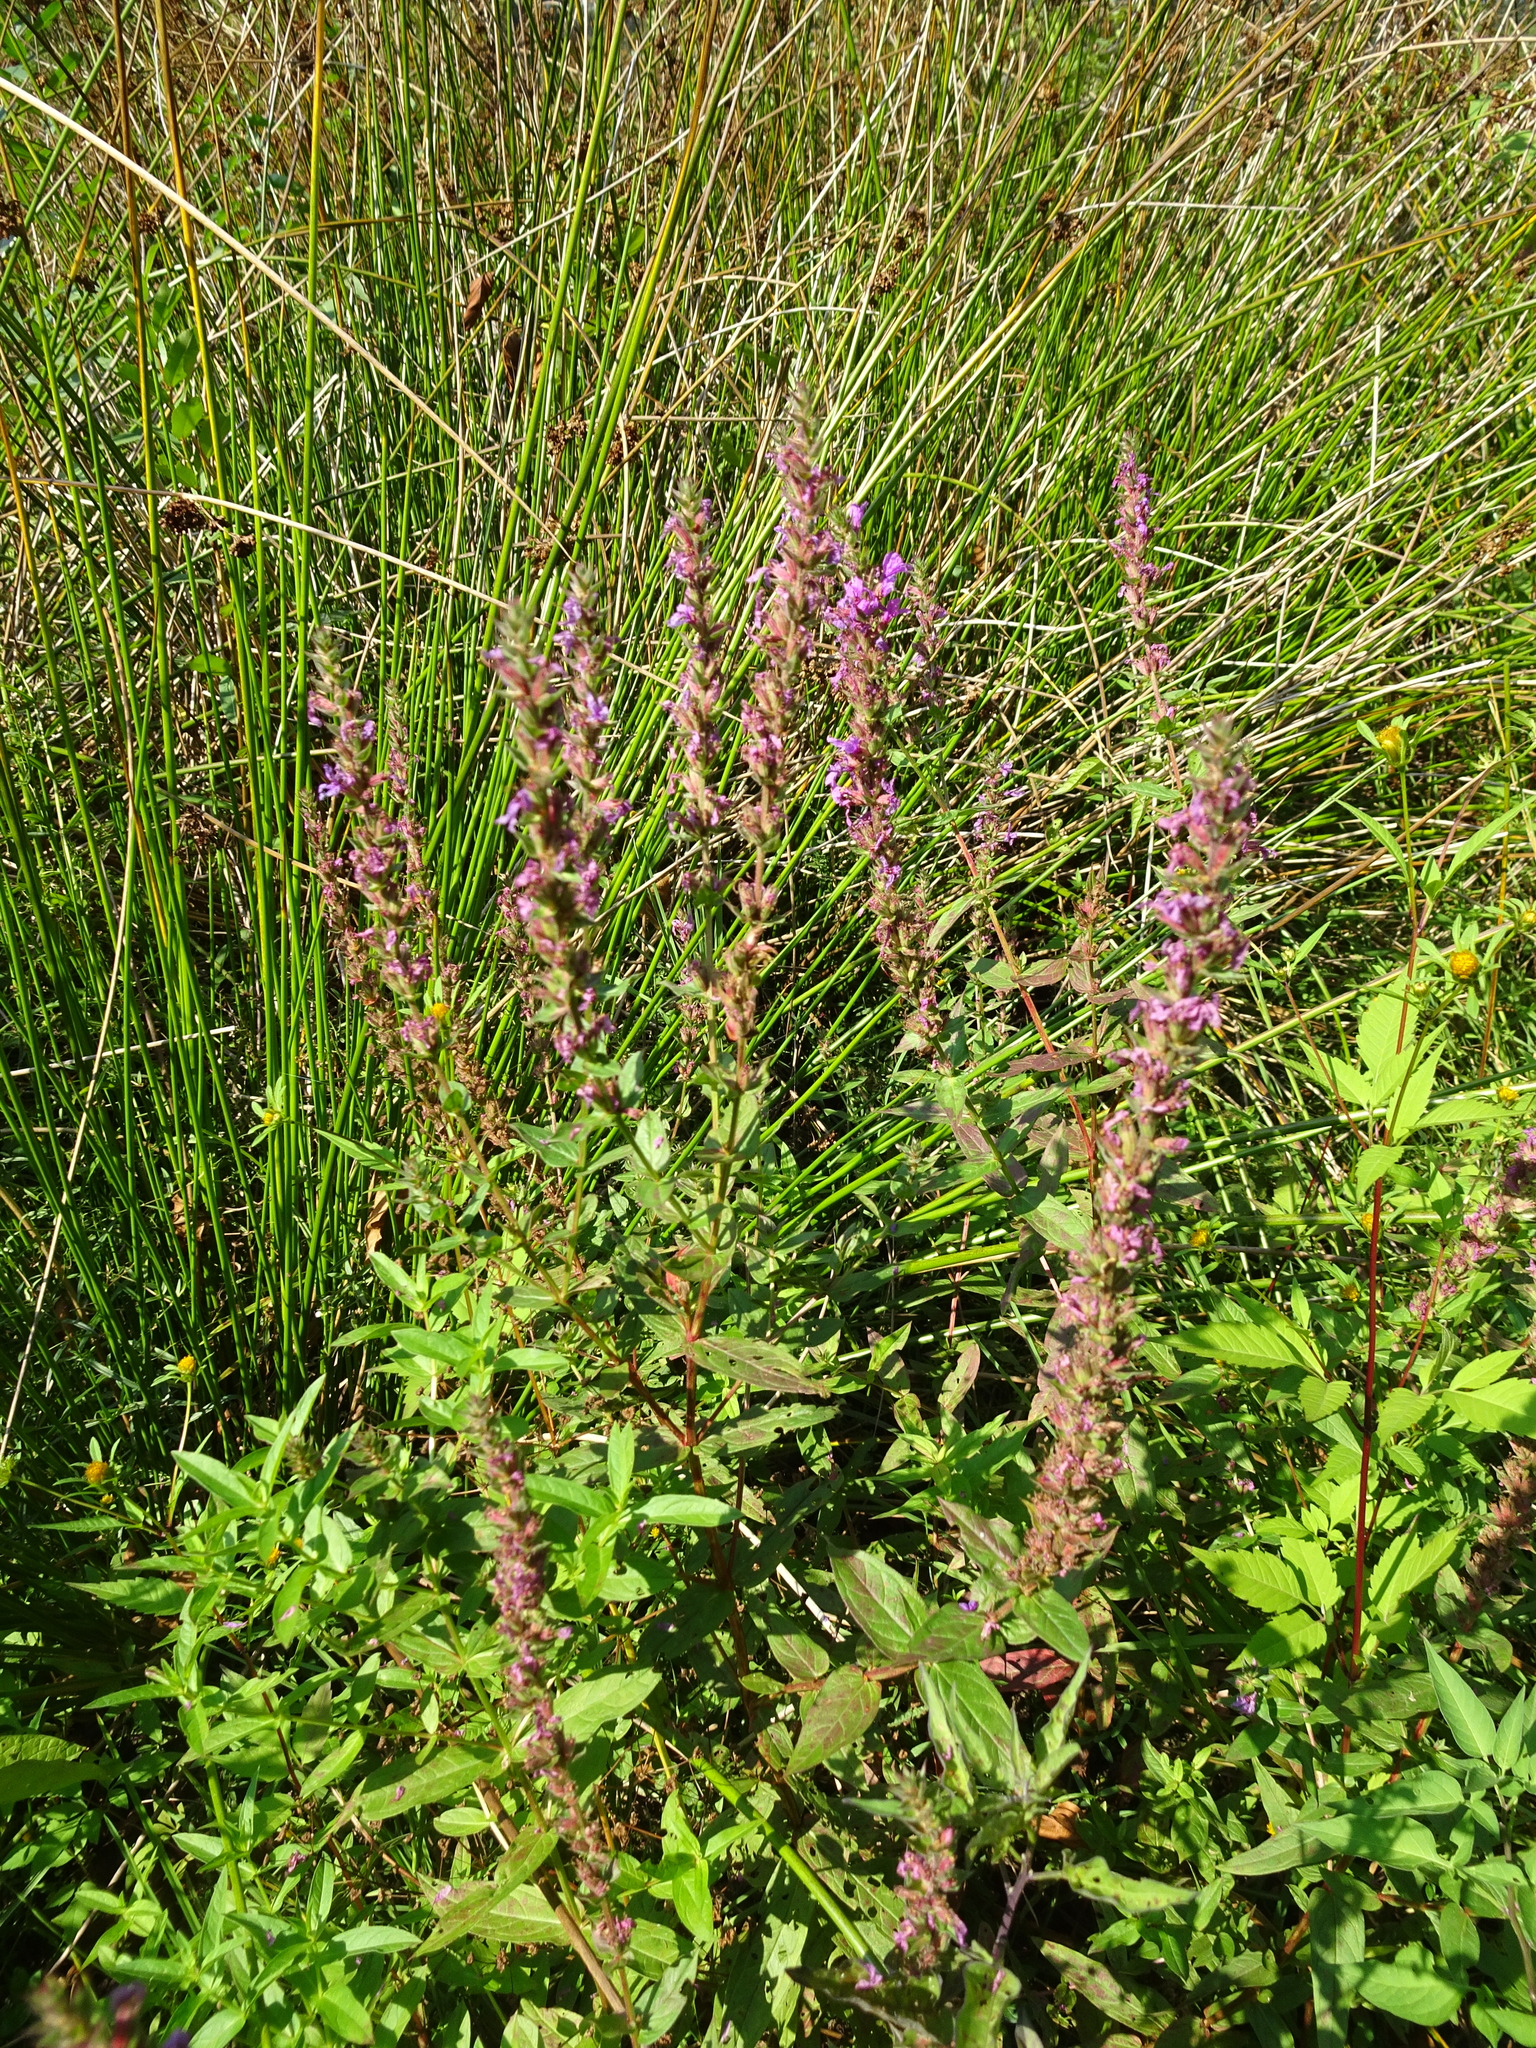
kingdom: Plantae
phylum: Tracheophyta
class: Magnoliopsida
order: Myrtales
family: Lythraceae
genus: Lythrum
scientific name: Lythrum salicaria
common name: Purple loosestrife
